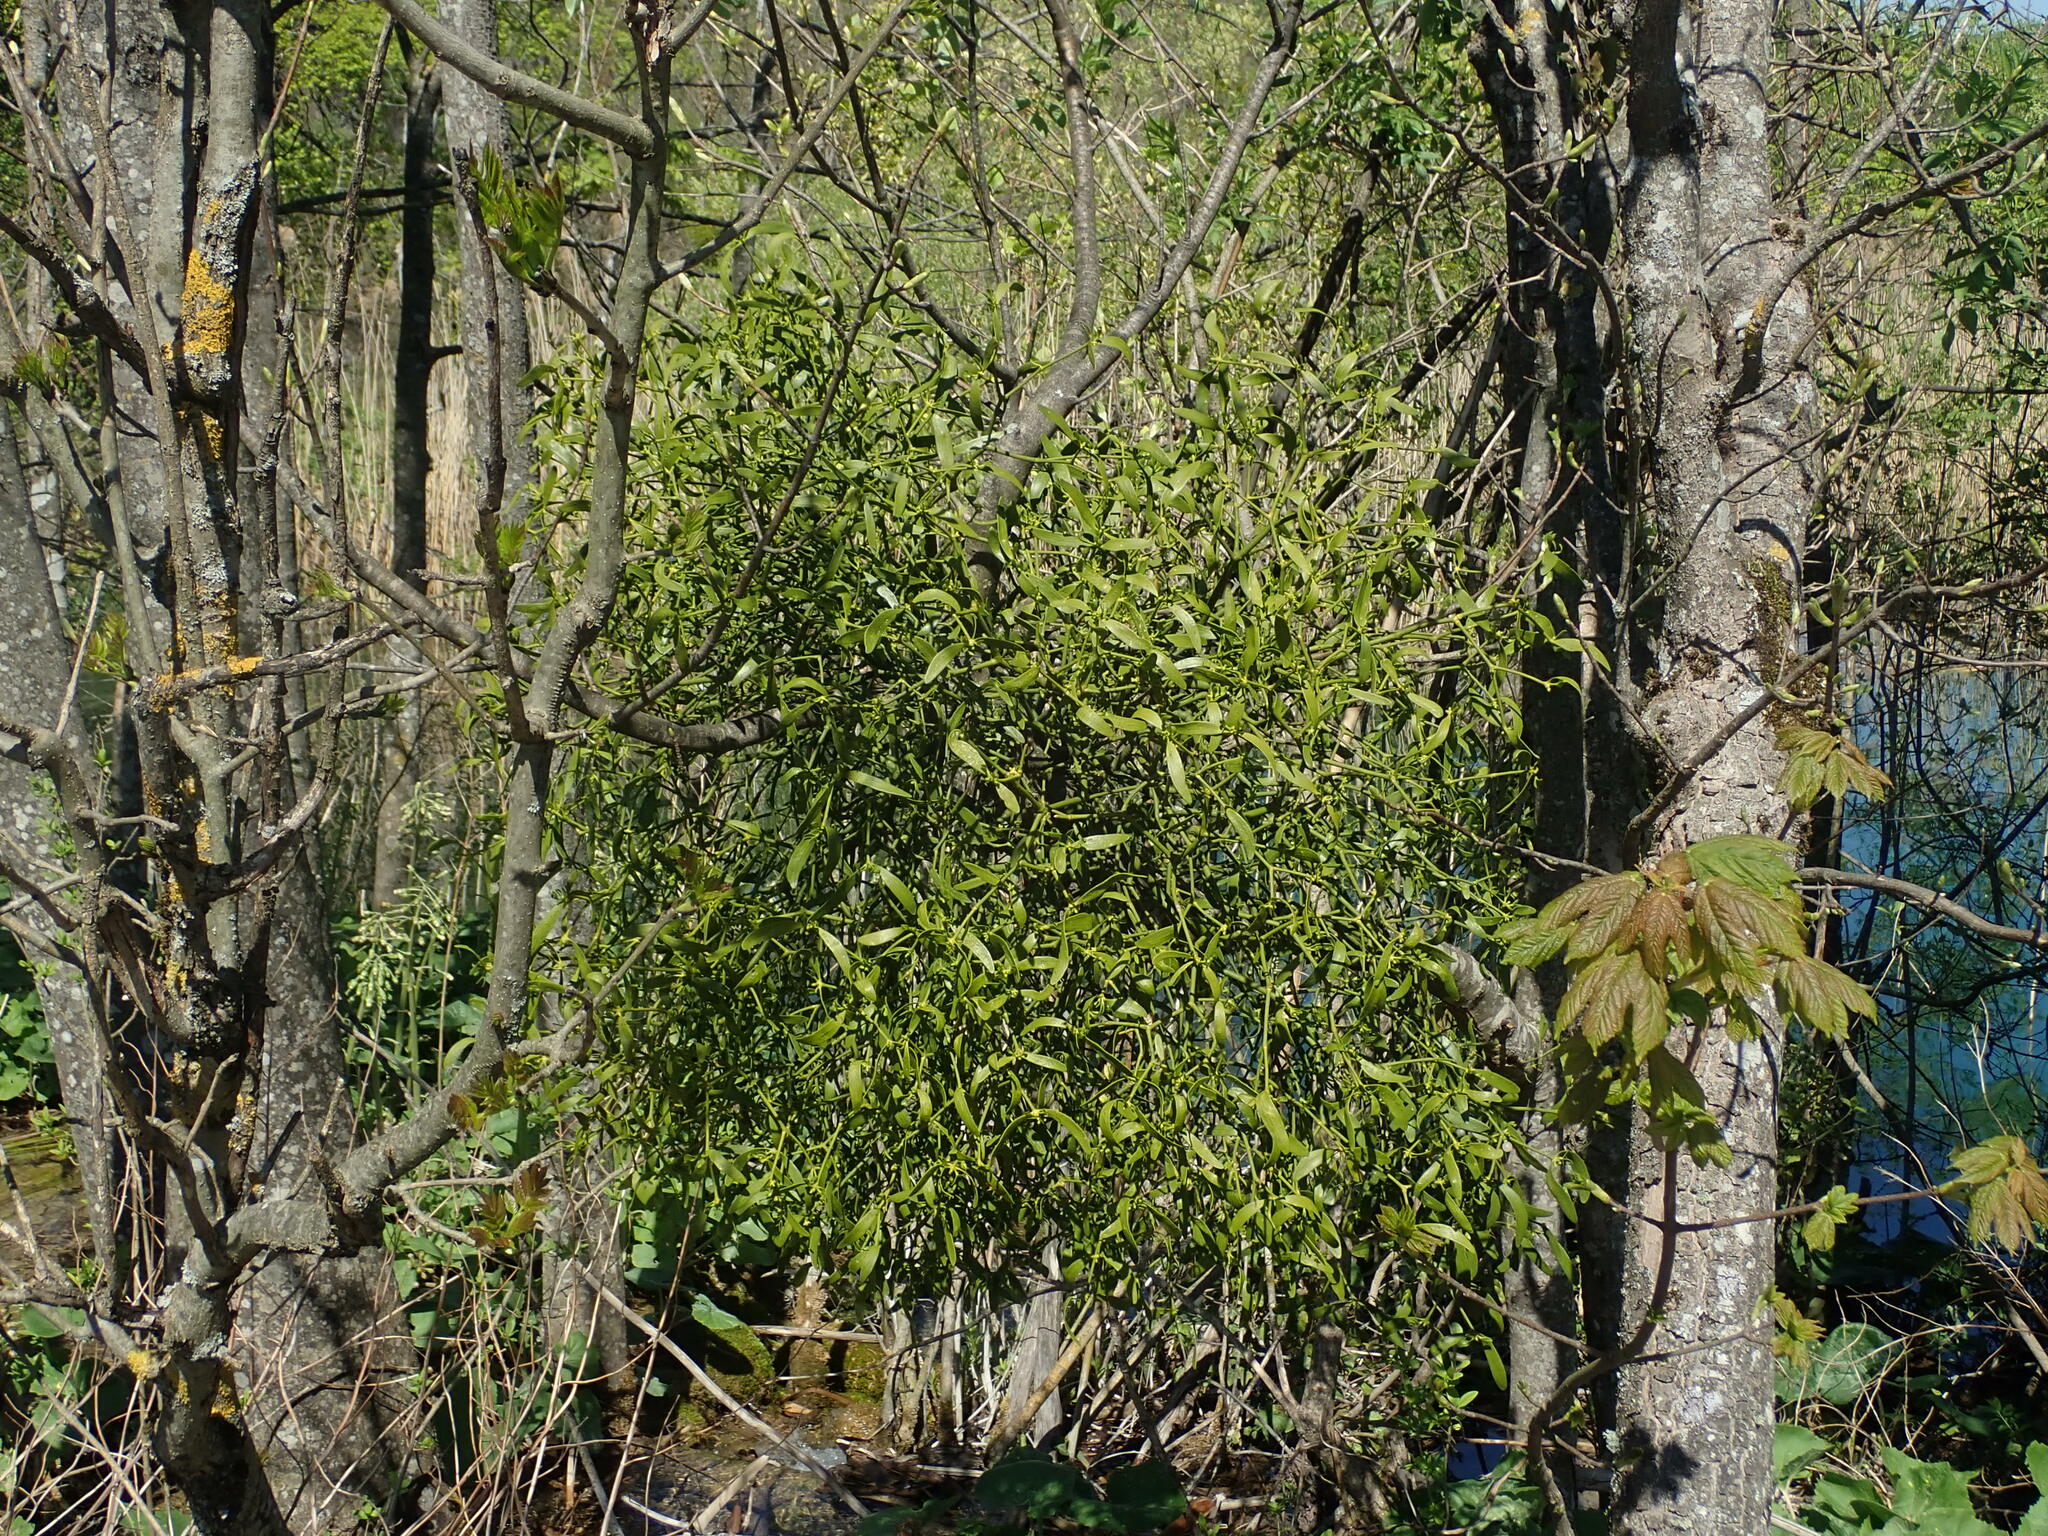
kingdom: Plantae
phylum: Tracheophyta
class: Magnoliopsida
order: Santalales
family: Viscaceae
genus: Viscum
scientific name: Viscum album
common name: Mistletoe
